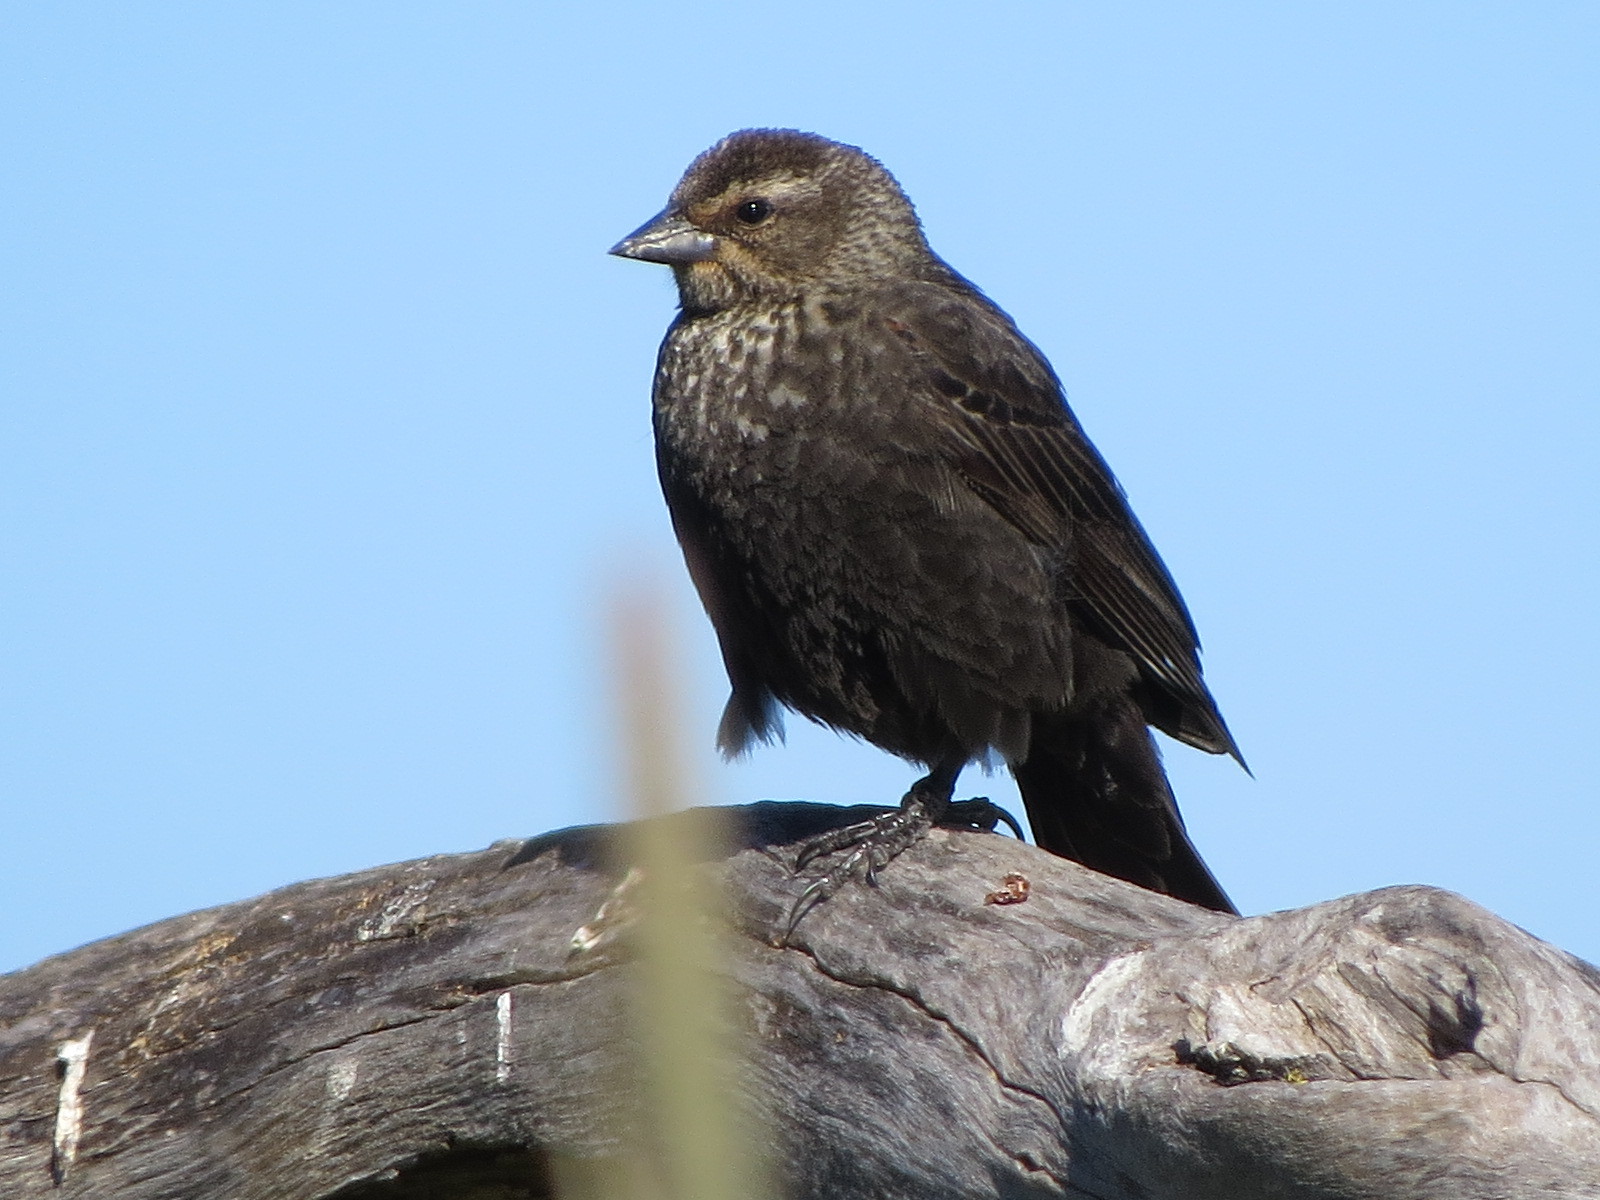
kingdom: Animalia
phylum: Chordata
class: Aves
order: Passeriformes
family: Icteridae
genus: Agelaius
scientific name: Agelaius phoeniceus
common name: Red-winged blackbird
